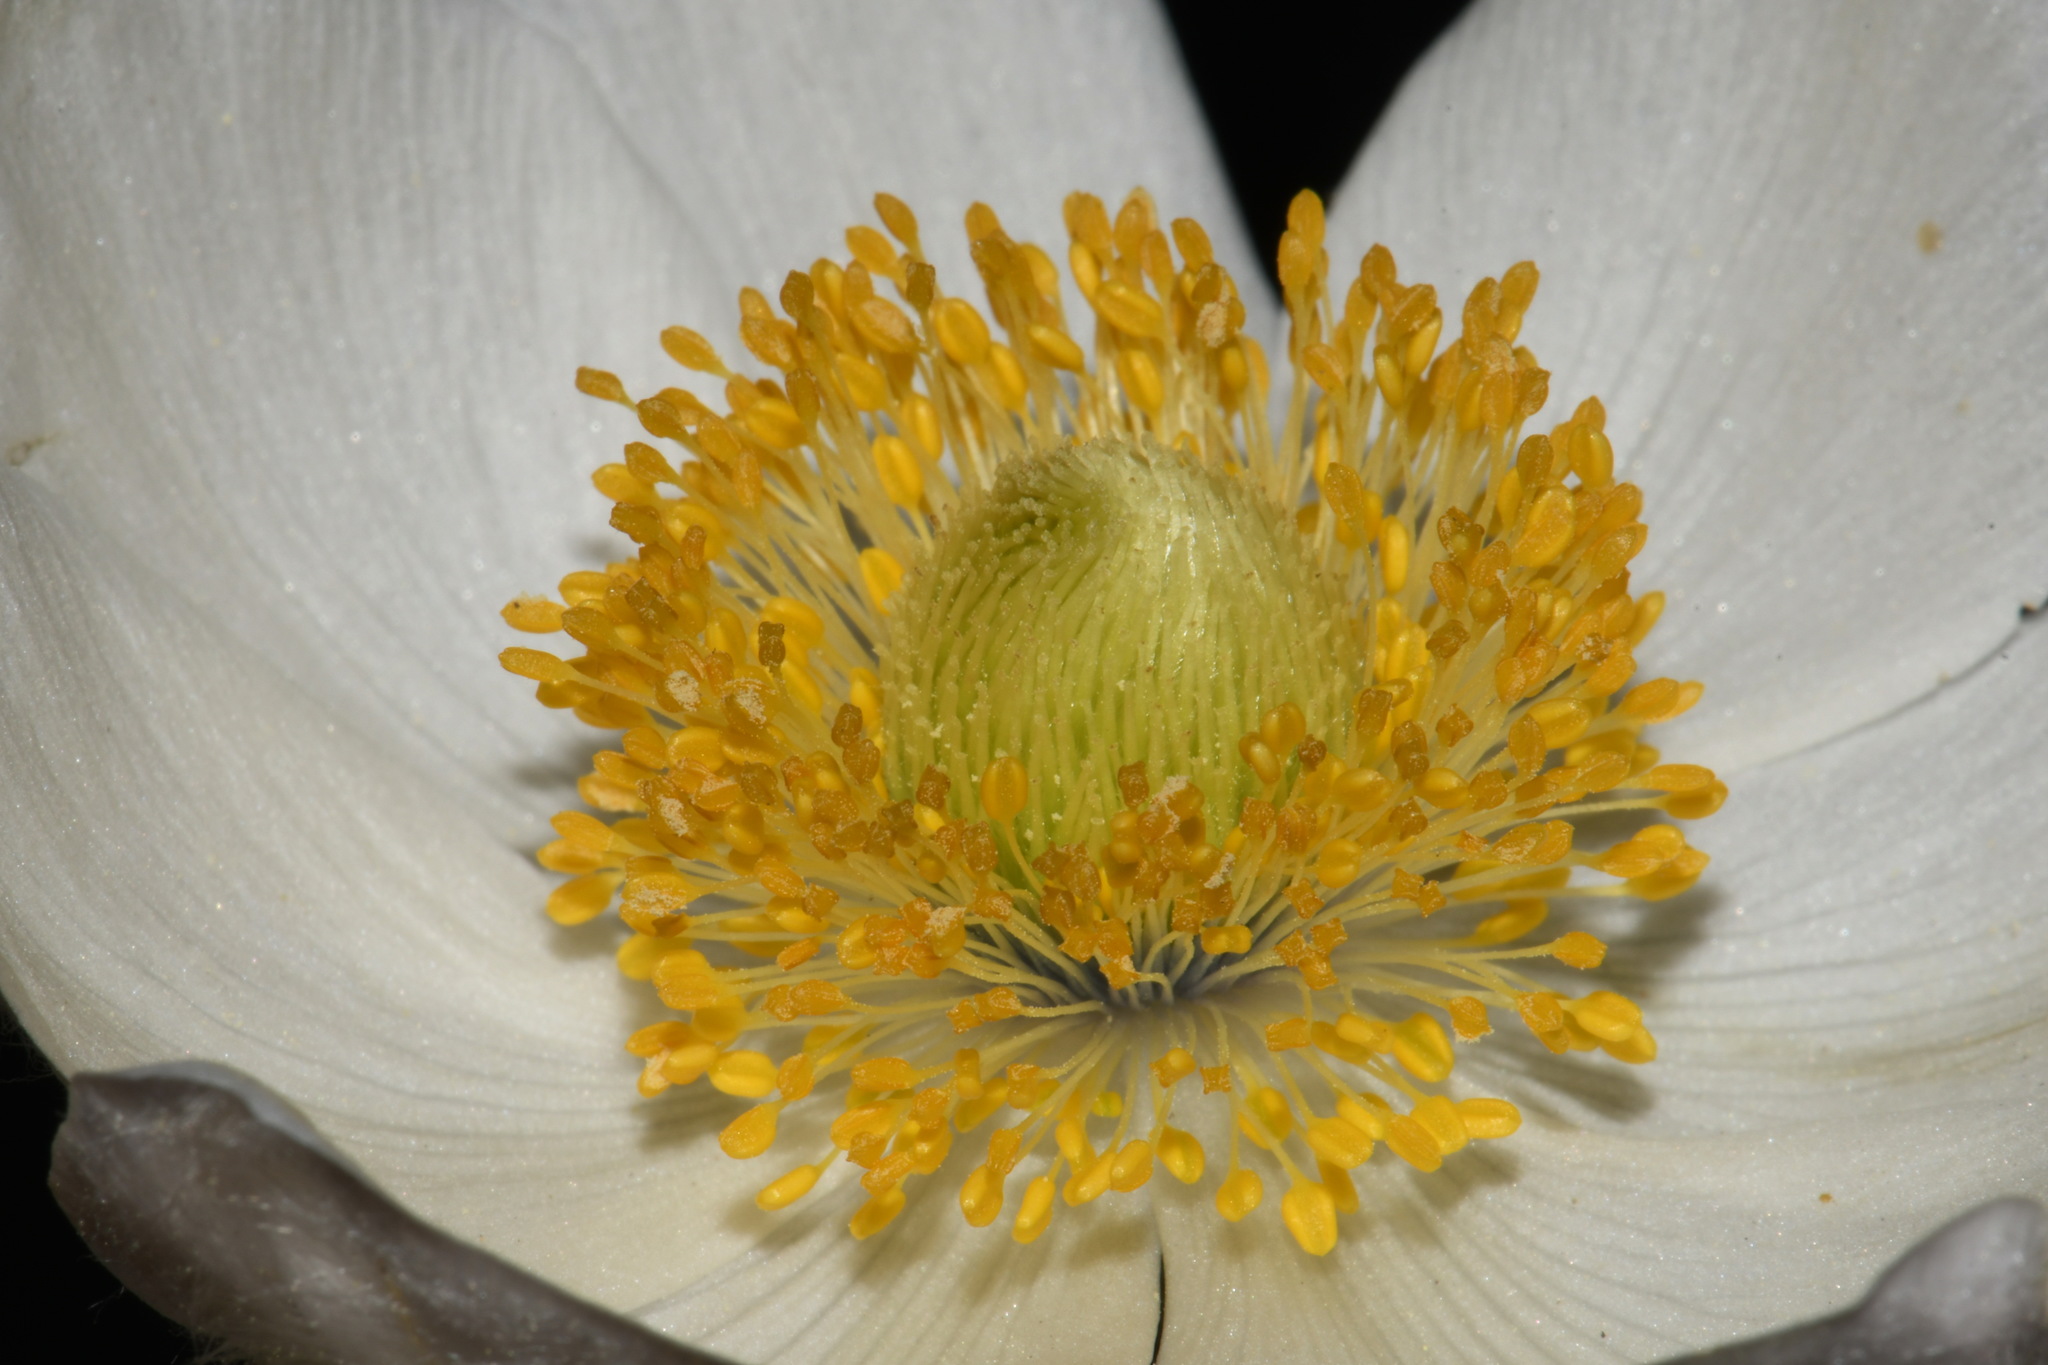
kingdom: Plantae
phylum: Tracheophyta
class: Magnoliopsida
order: Ranunculales
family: Ranunculaceae
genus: Pulsatilla
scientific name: Pulsatilla occidentalis
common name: Mountain pasqueflower
